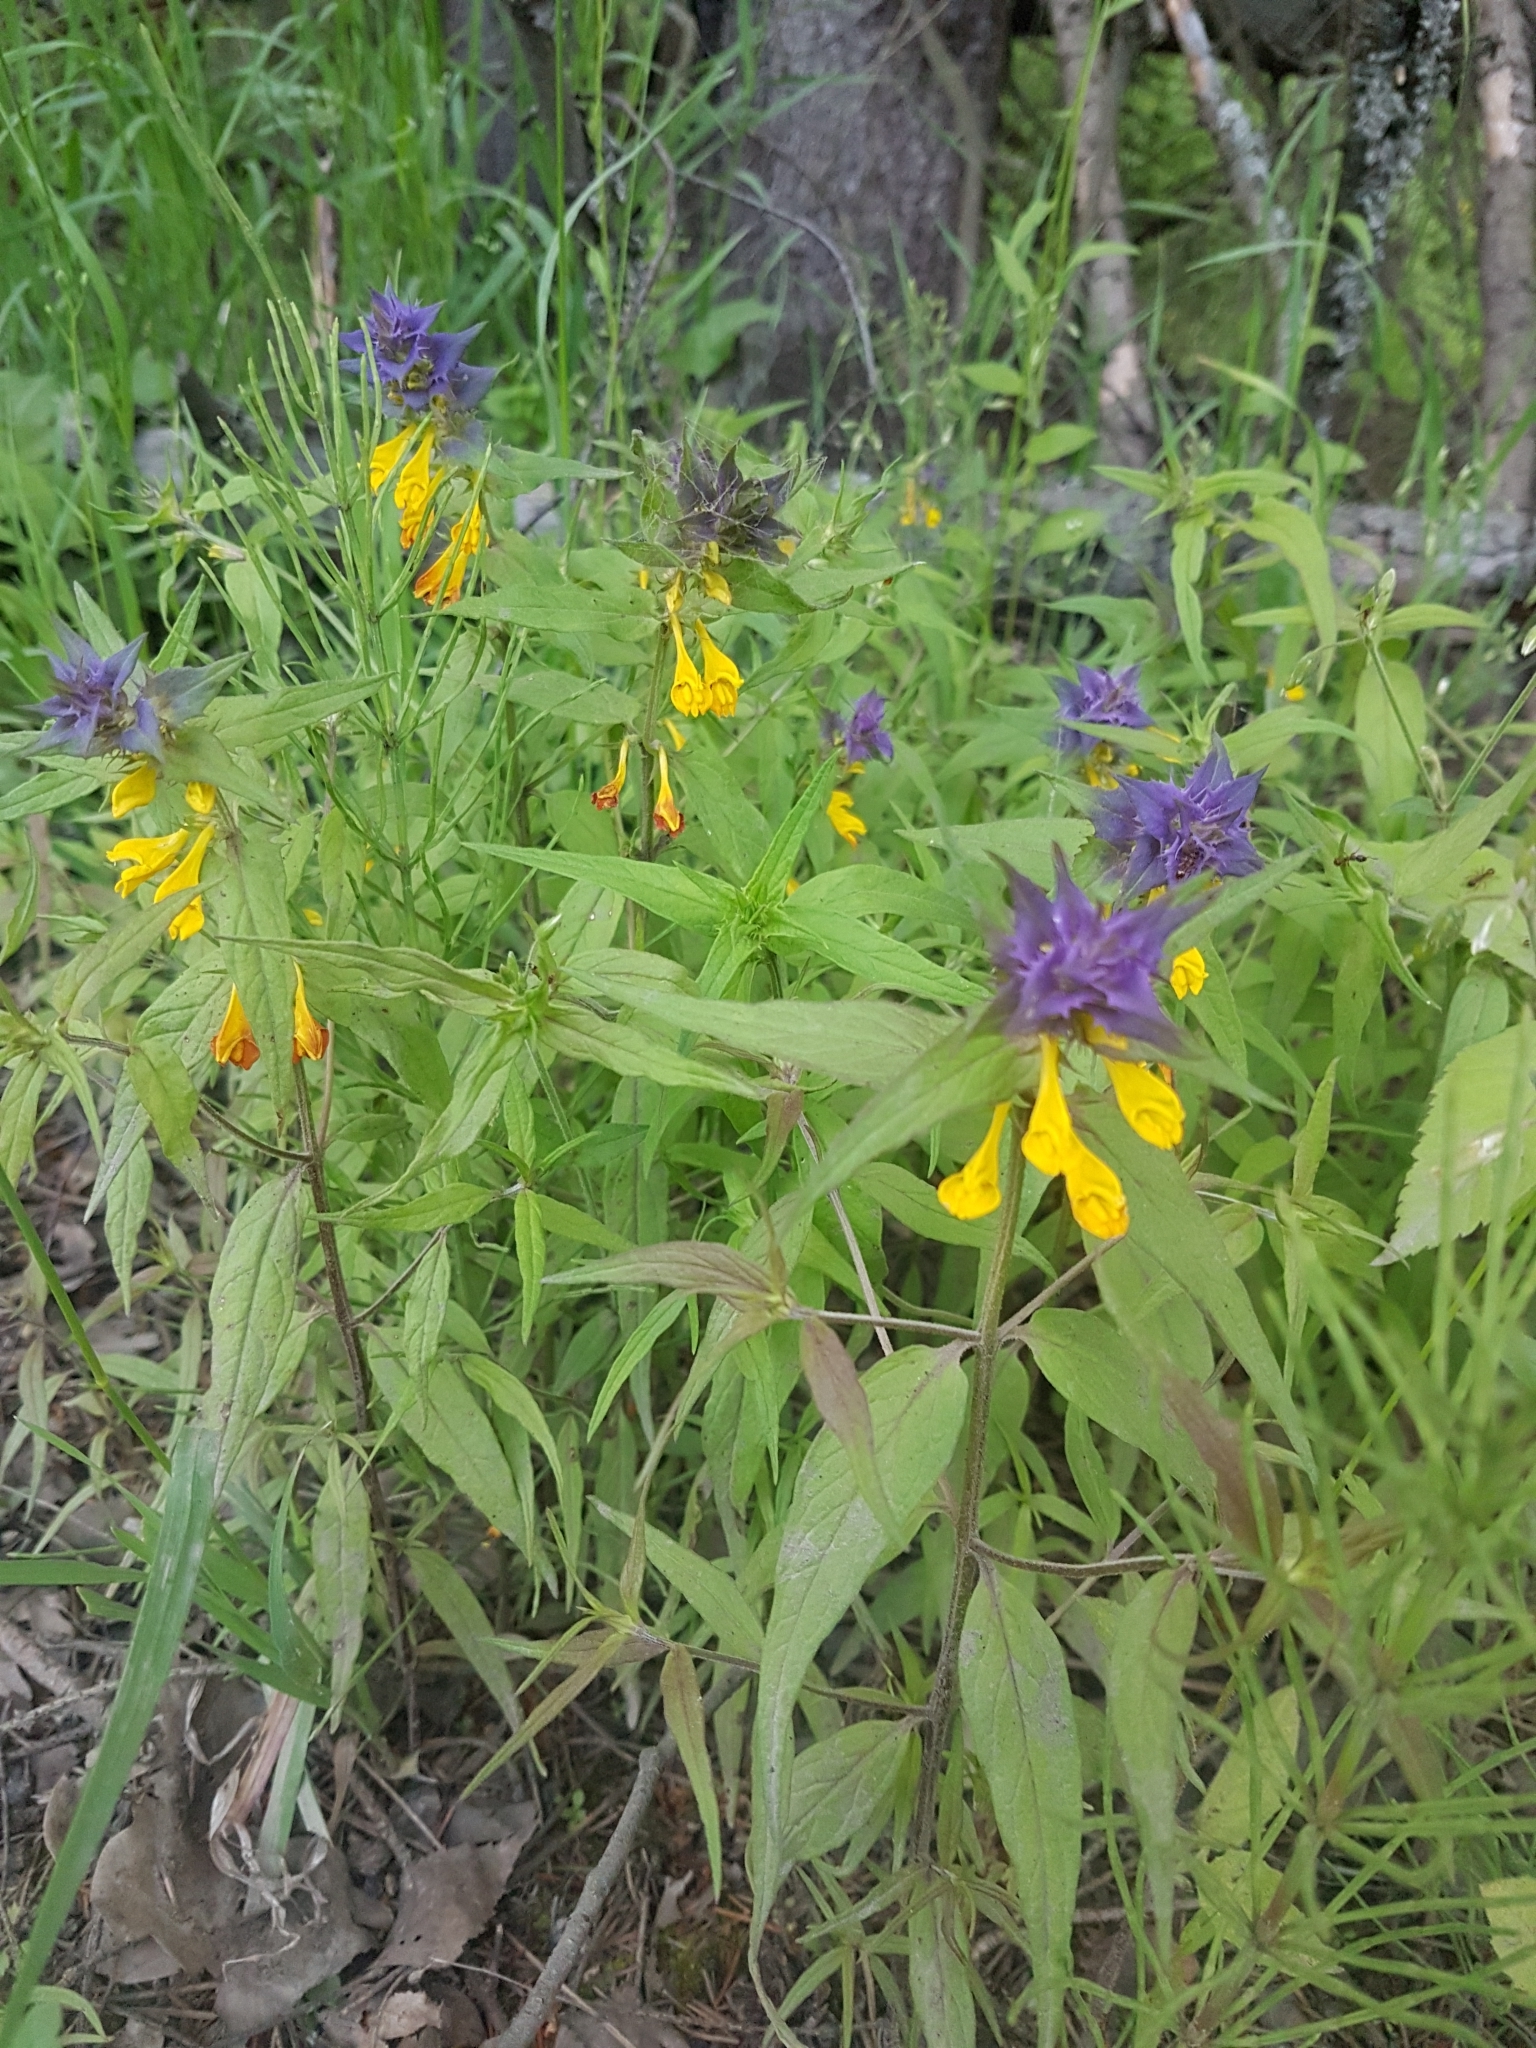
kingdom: Plantae
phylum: Tracheophyta
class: Magnoliopsida
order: Lamiales
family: Orobanchaceae
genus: Melampyrum
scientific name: Melampyrum nemorosum
